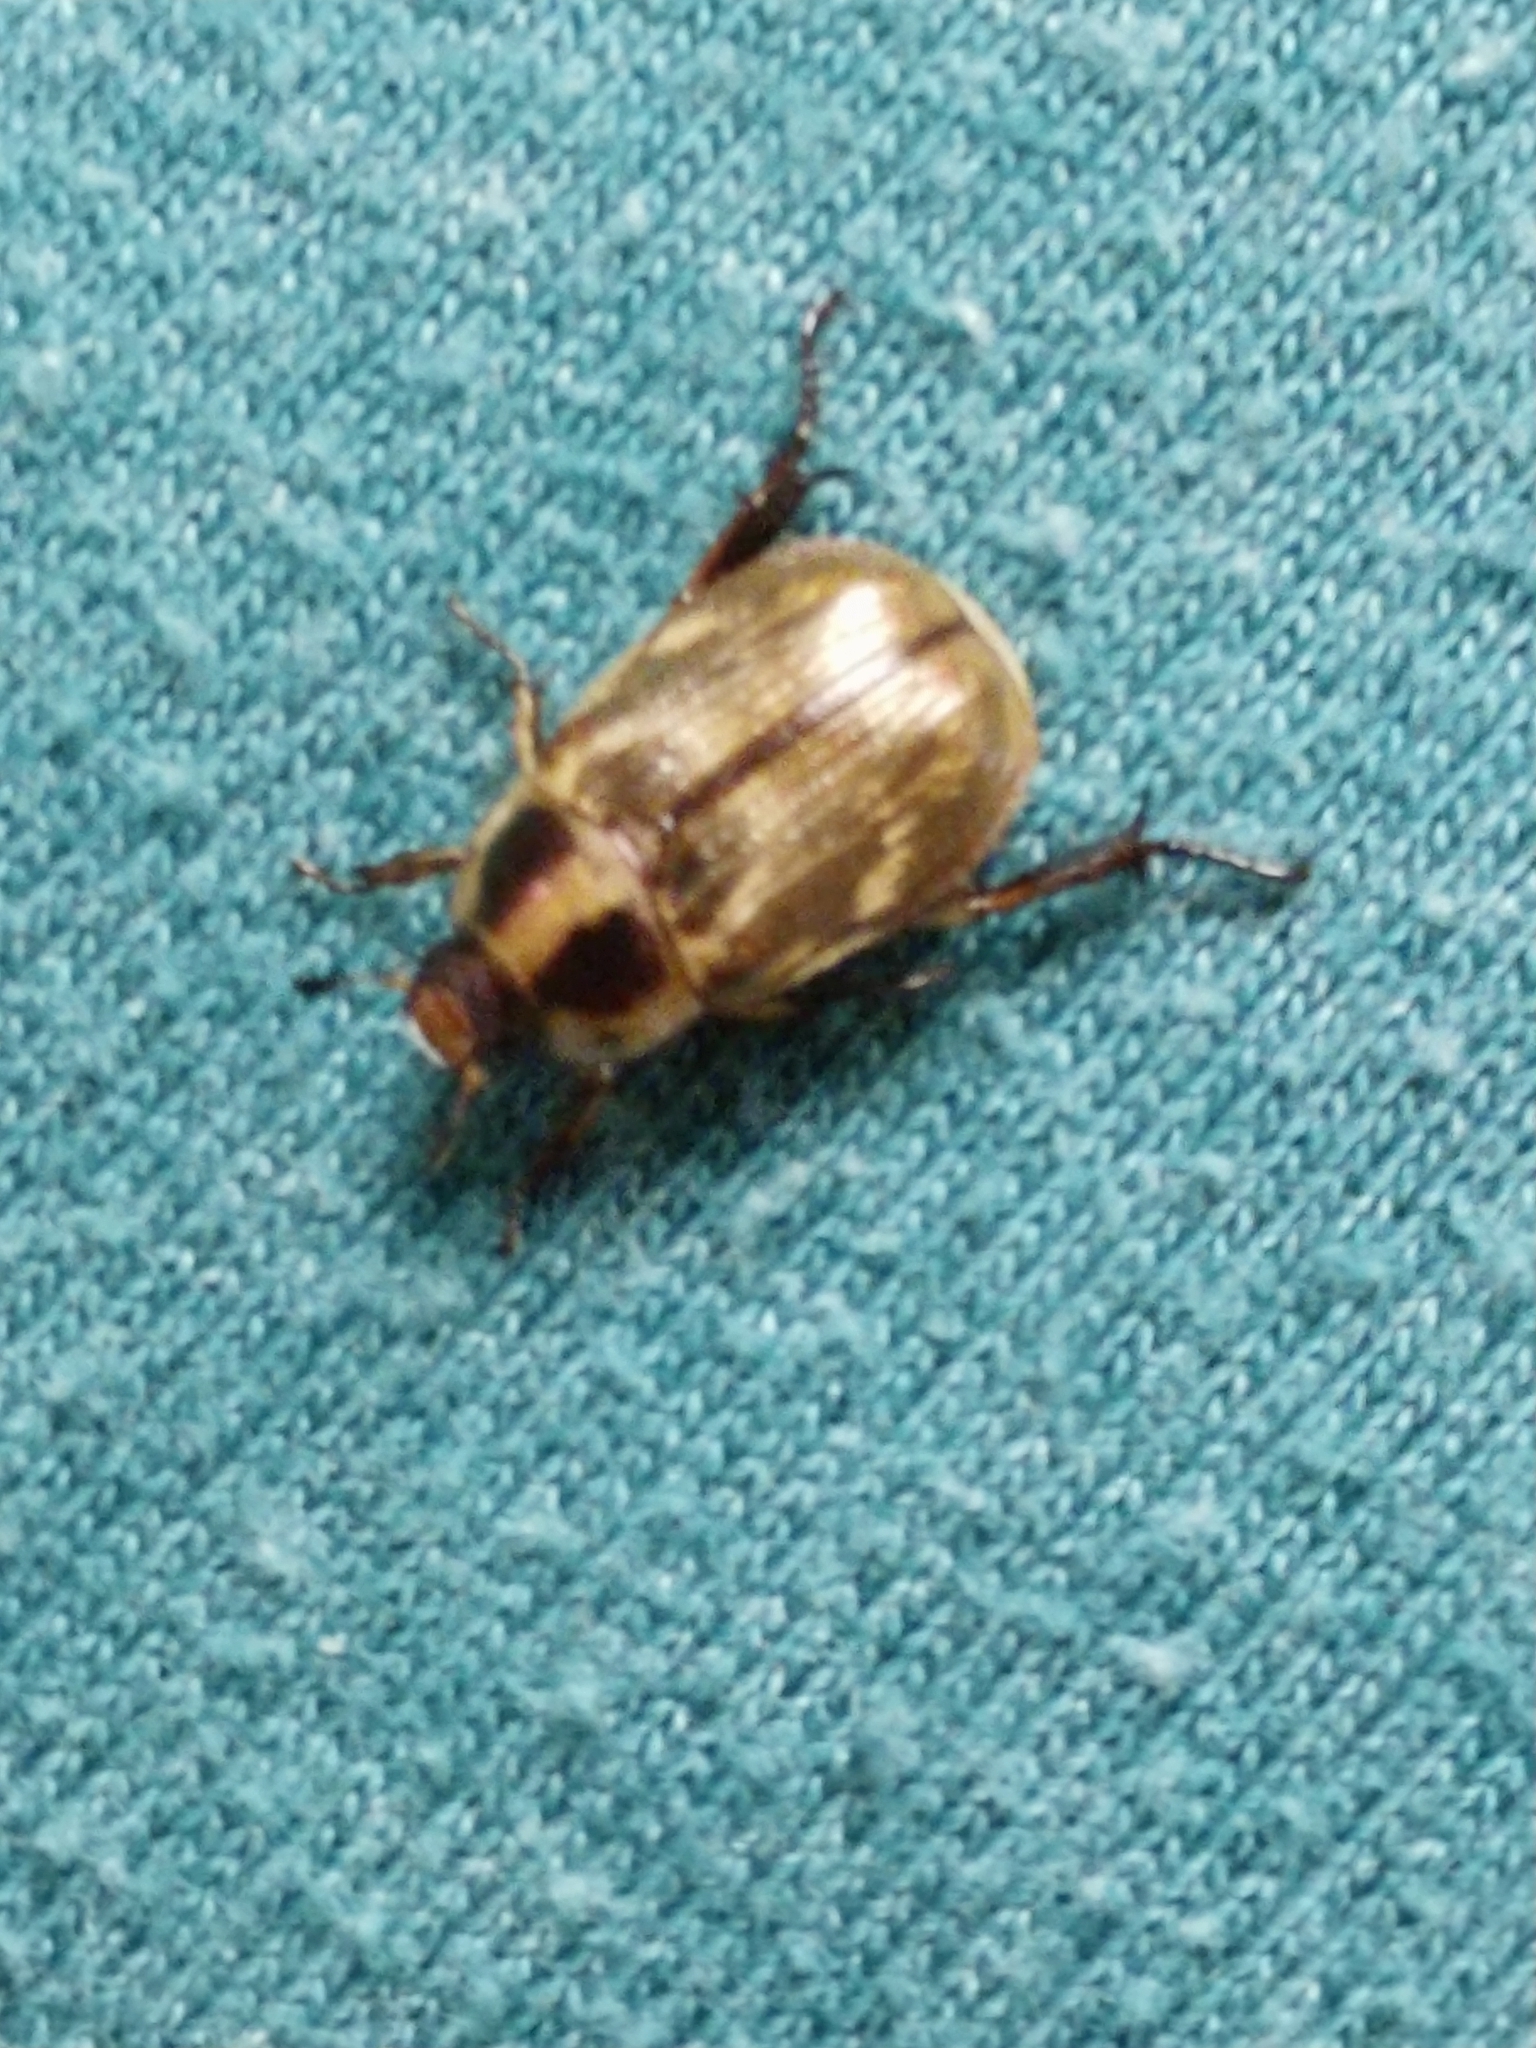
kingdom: Animalia
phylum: Arthropoda
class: Insecta
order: Coleoptera
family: Scarabaeidae
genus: Exomala
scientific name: Exomala orientalis
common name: Oriental beetle
